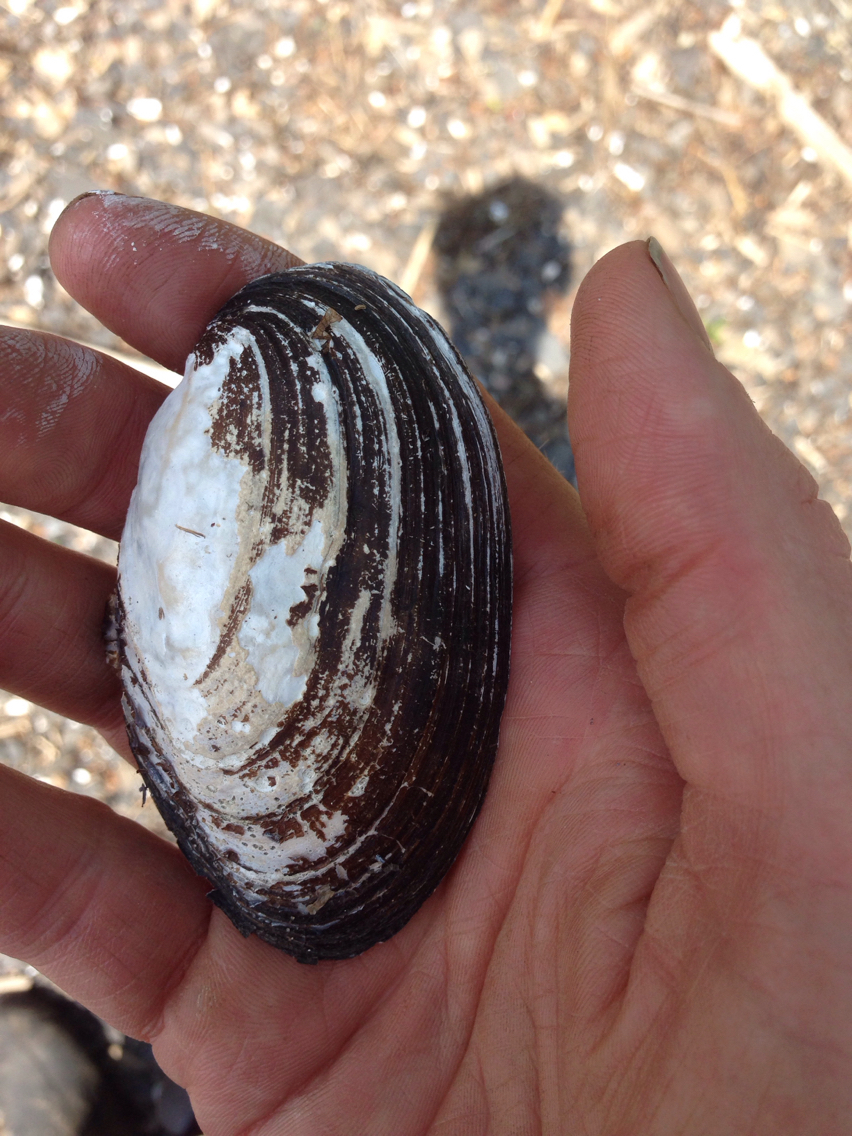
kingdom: Animalia
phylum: Mollusca
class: Bivalvia
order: Unionida
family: Unionidae
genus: Lampsilis
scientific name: Lampsilis radiata
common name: Eastern lampmussel
